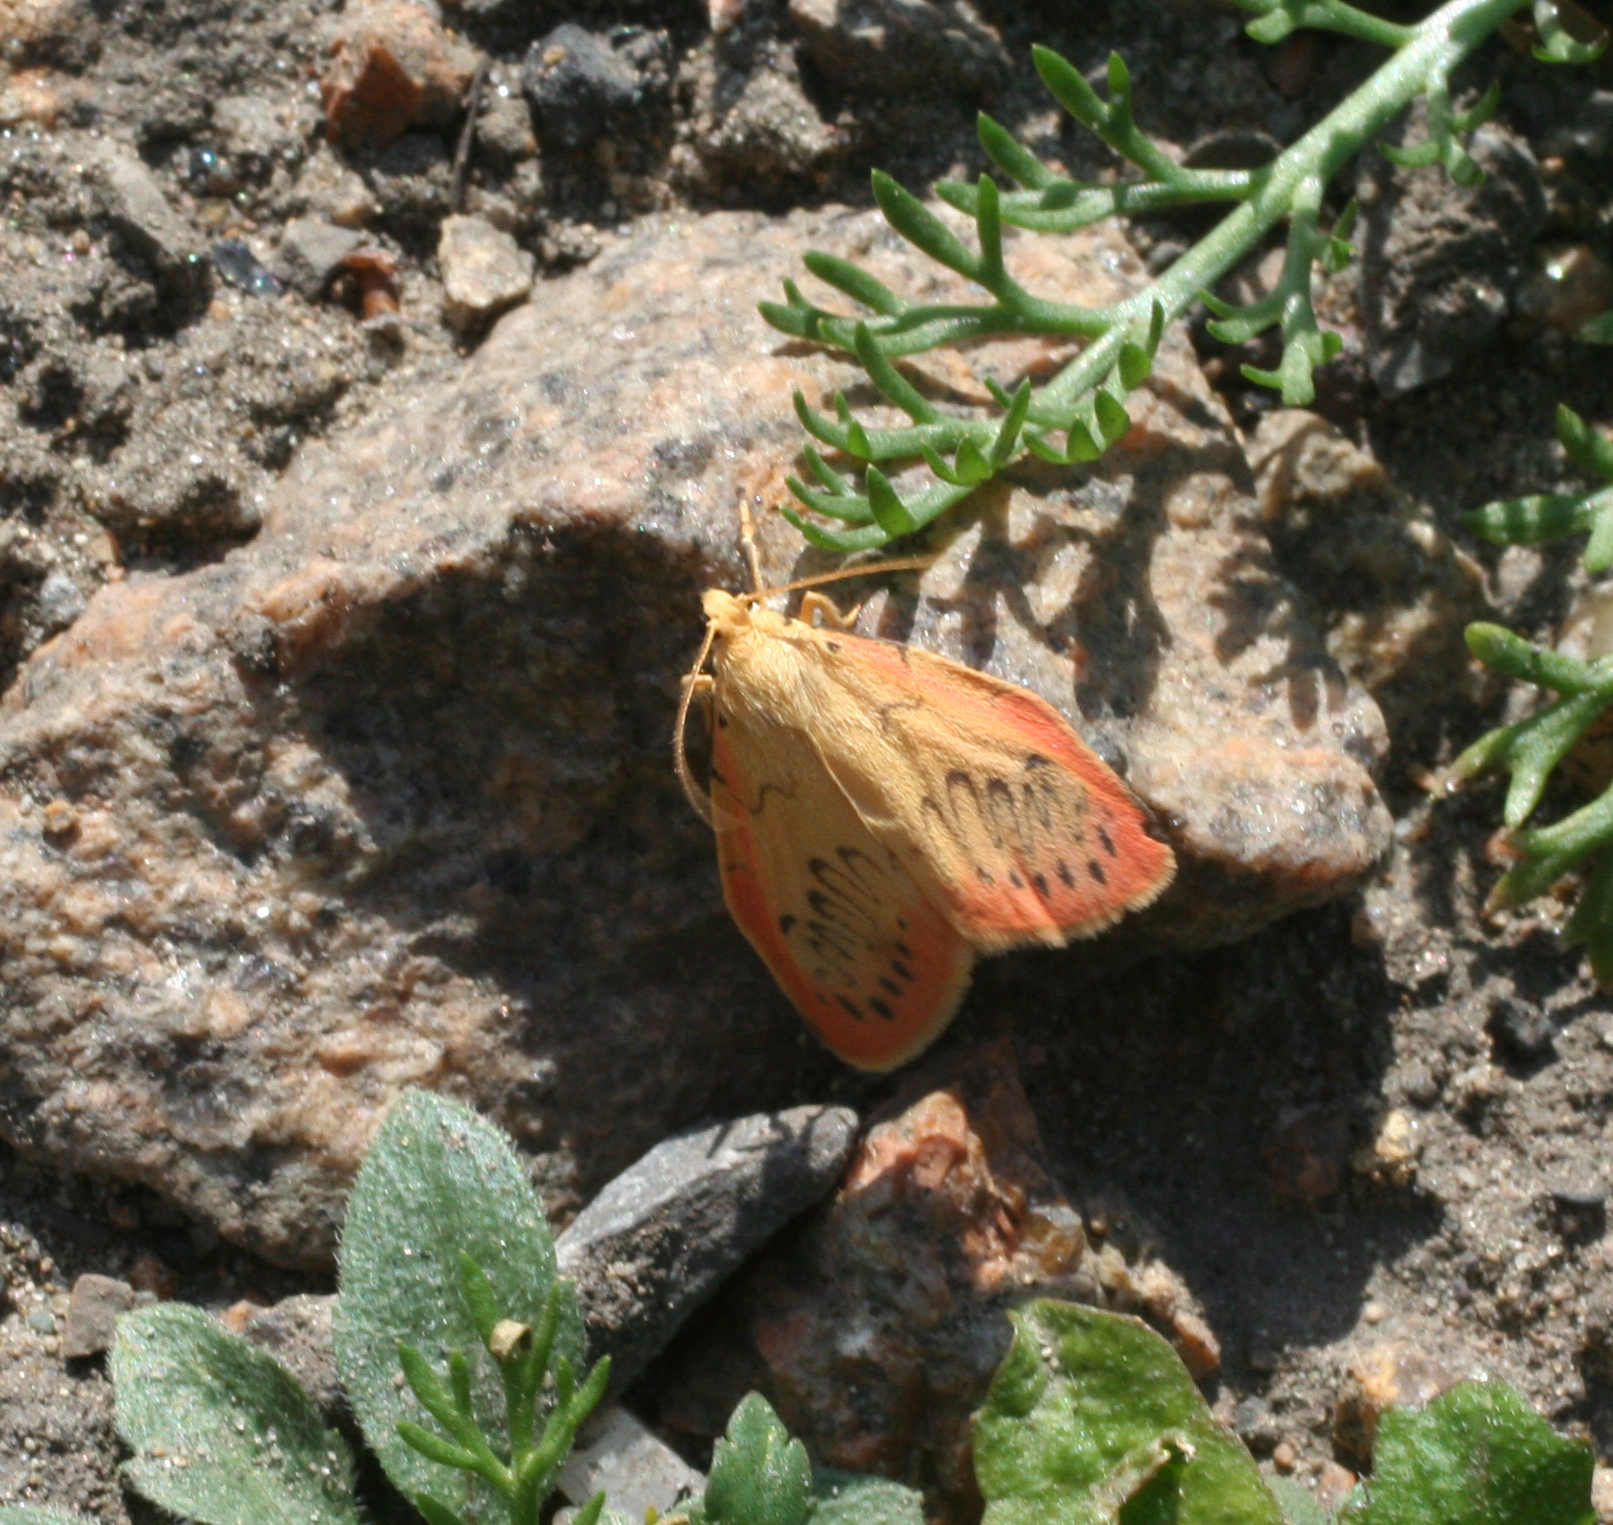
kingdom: Animalia
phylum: Arthropoda
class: Insecta
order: Lepidoptera
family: Erebidae
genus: Miltochrista
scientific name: Miltochrista miniata
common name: Rosy footman
